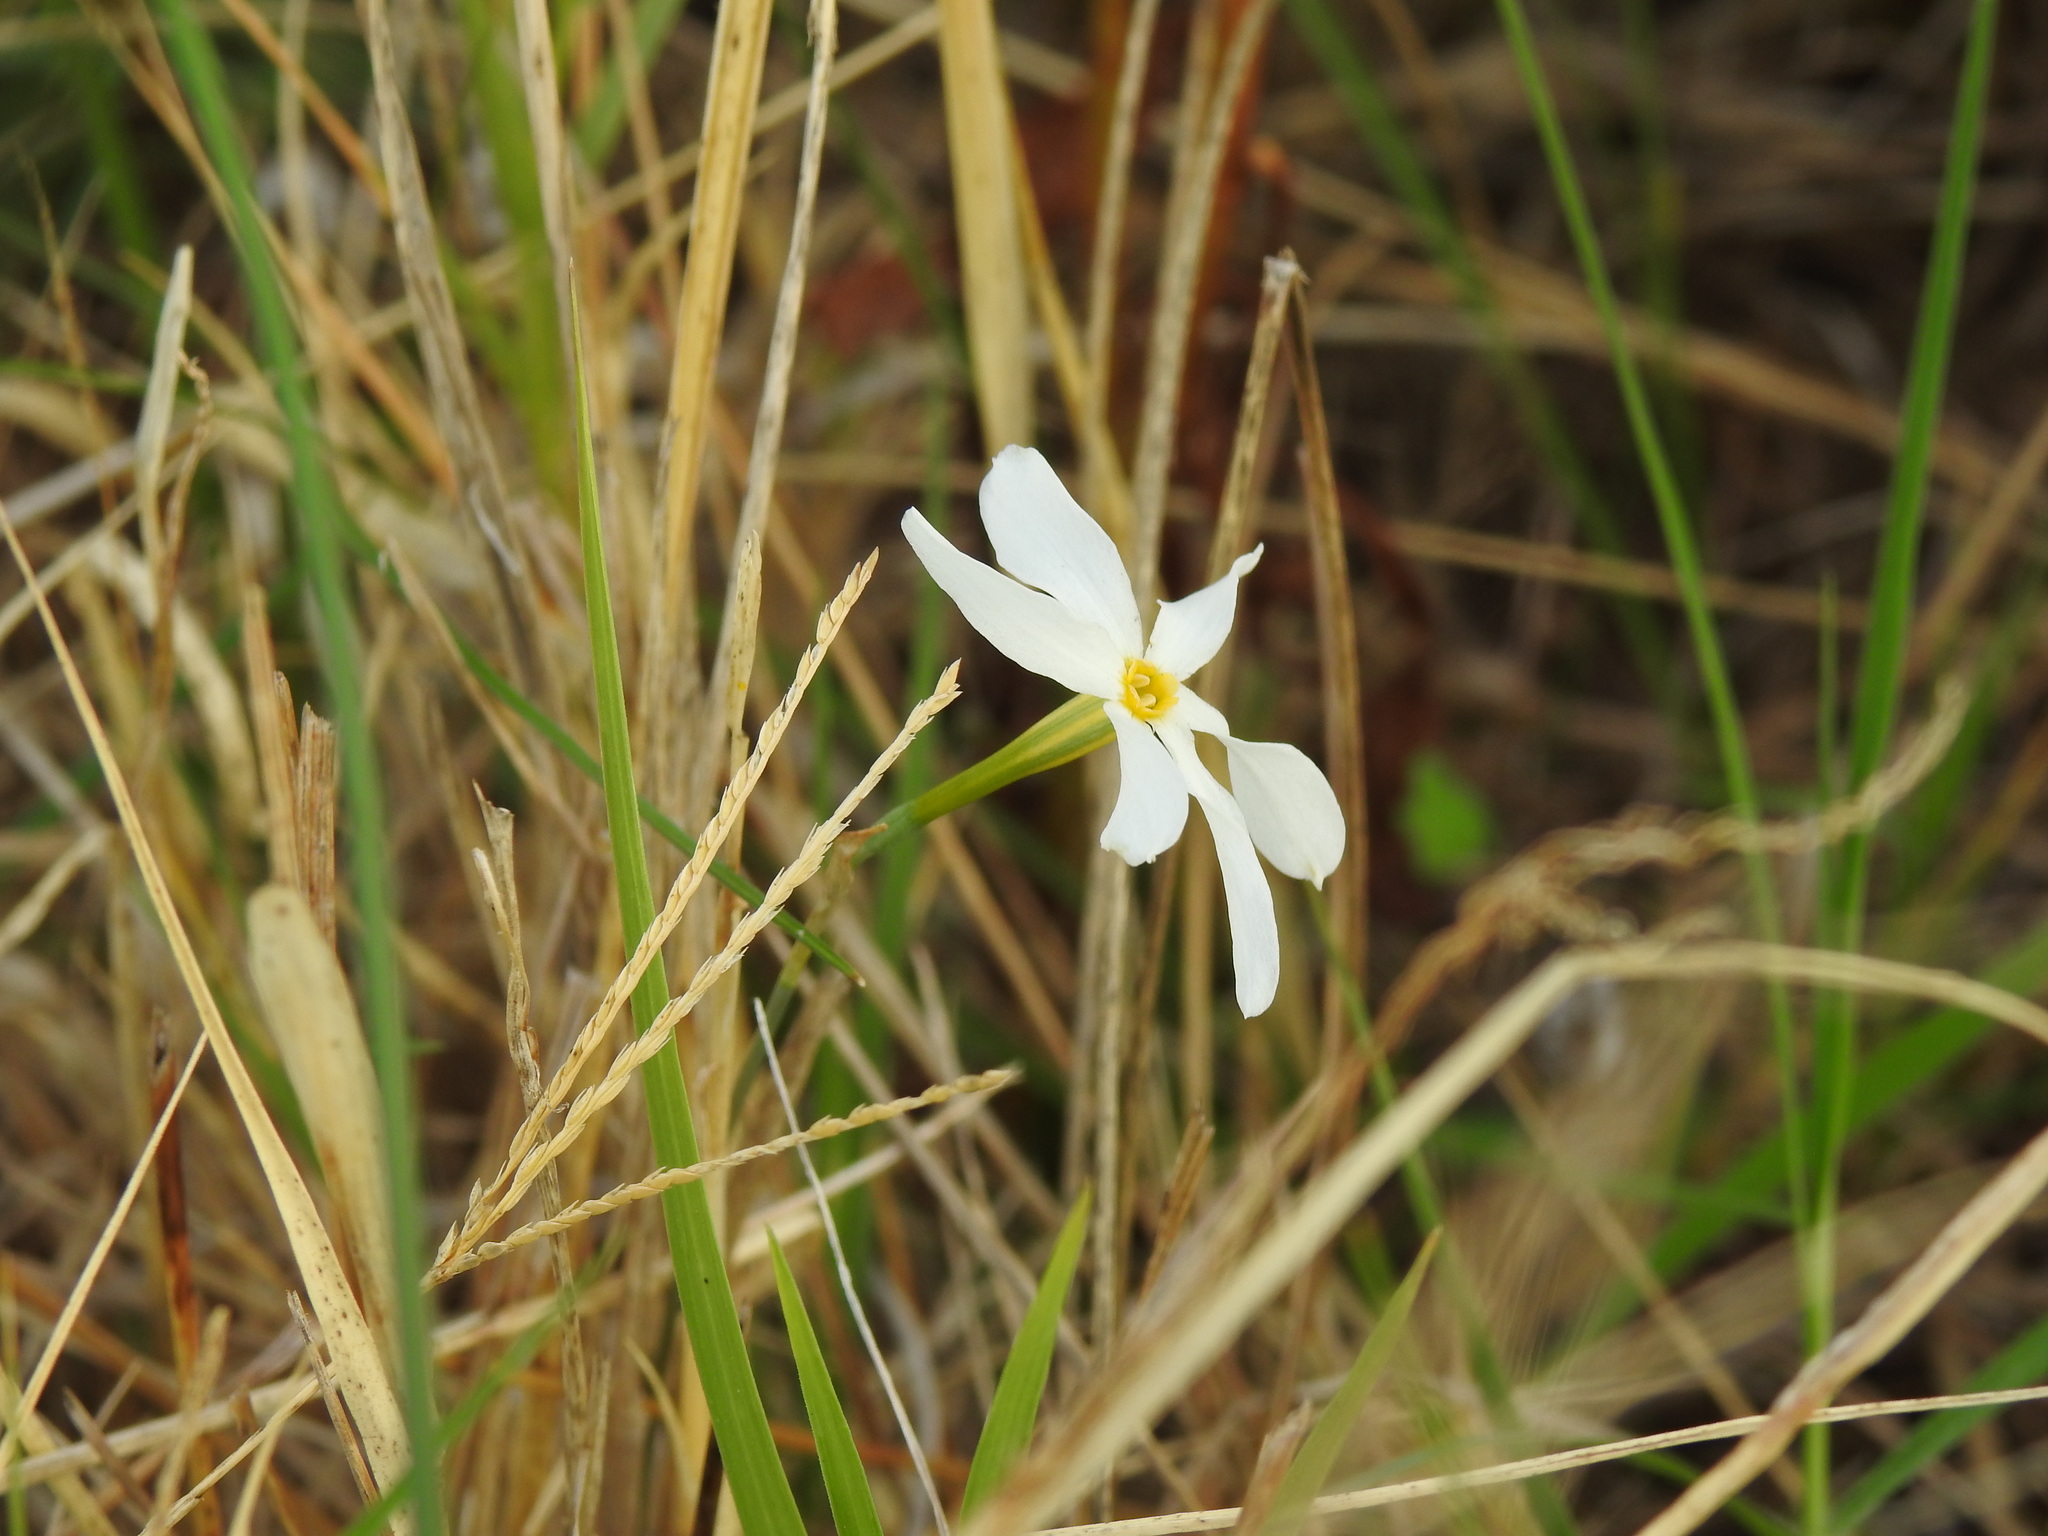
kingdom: Plantae
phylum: Tracheophyta
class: Liliopsida
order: Asparagales
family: Amaryllidaceae
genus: Narcissus
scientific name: Narcissus serotinus
